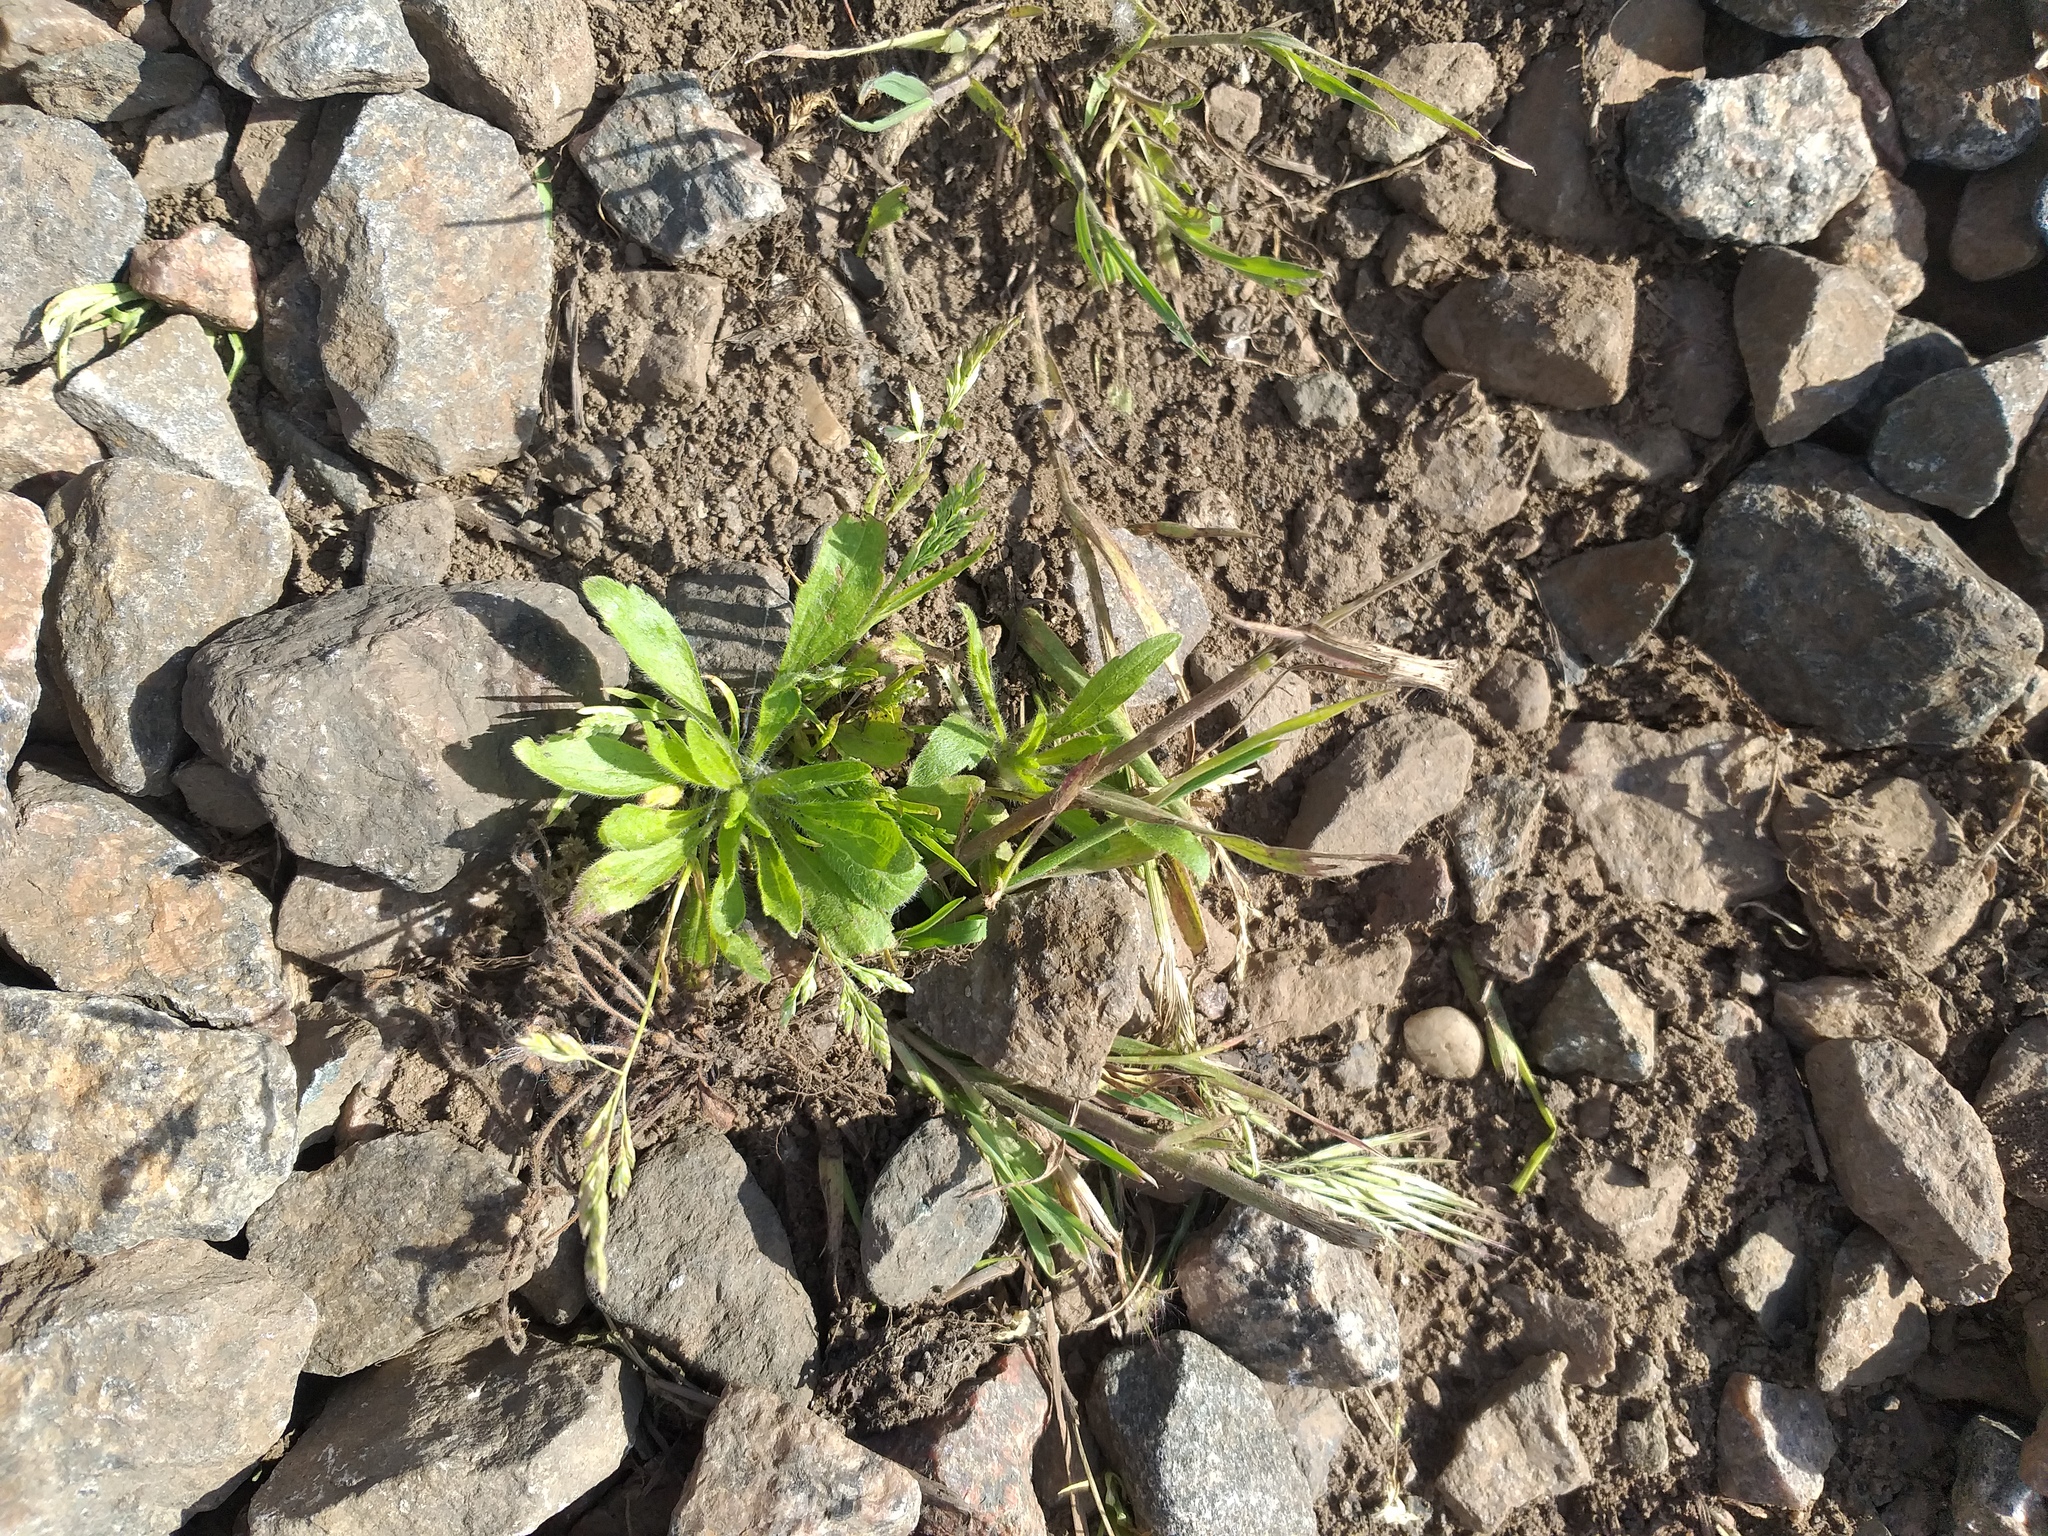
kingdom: Plantae
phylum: Tracheophyta
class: Magnoliopsida
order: Asterales
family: Asteraceae
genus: Erigeron
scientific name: Erigeron canadensis
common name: Canadian fleabane
